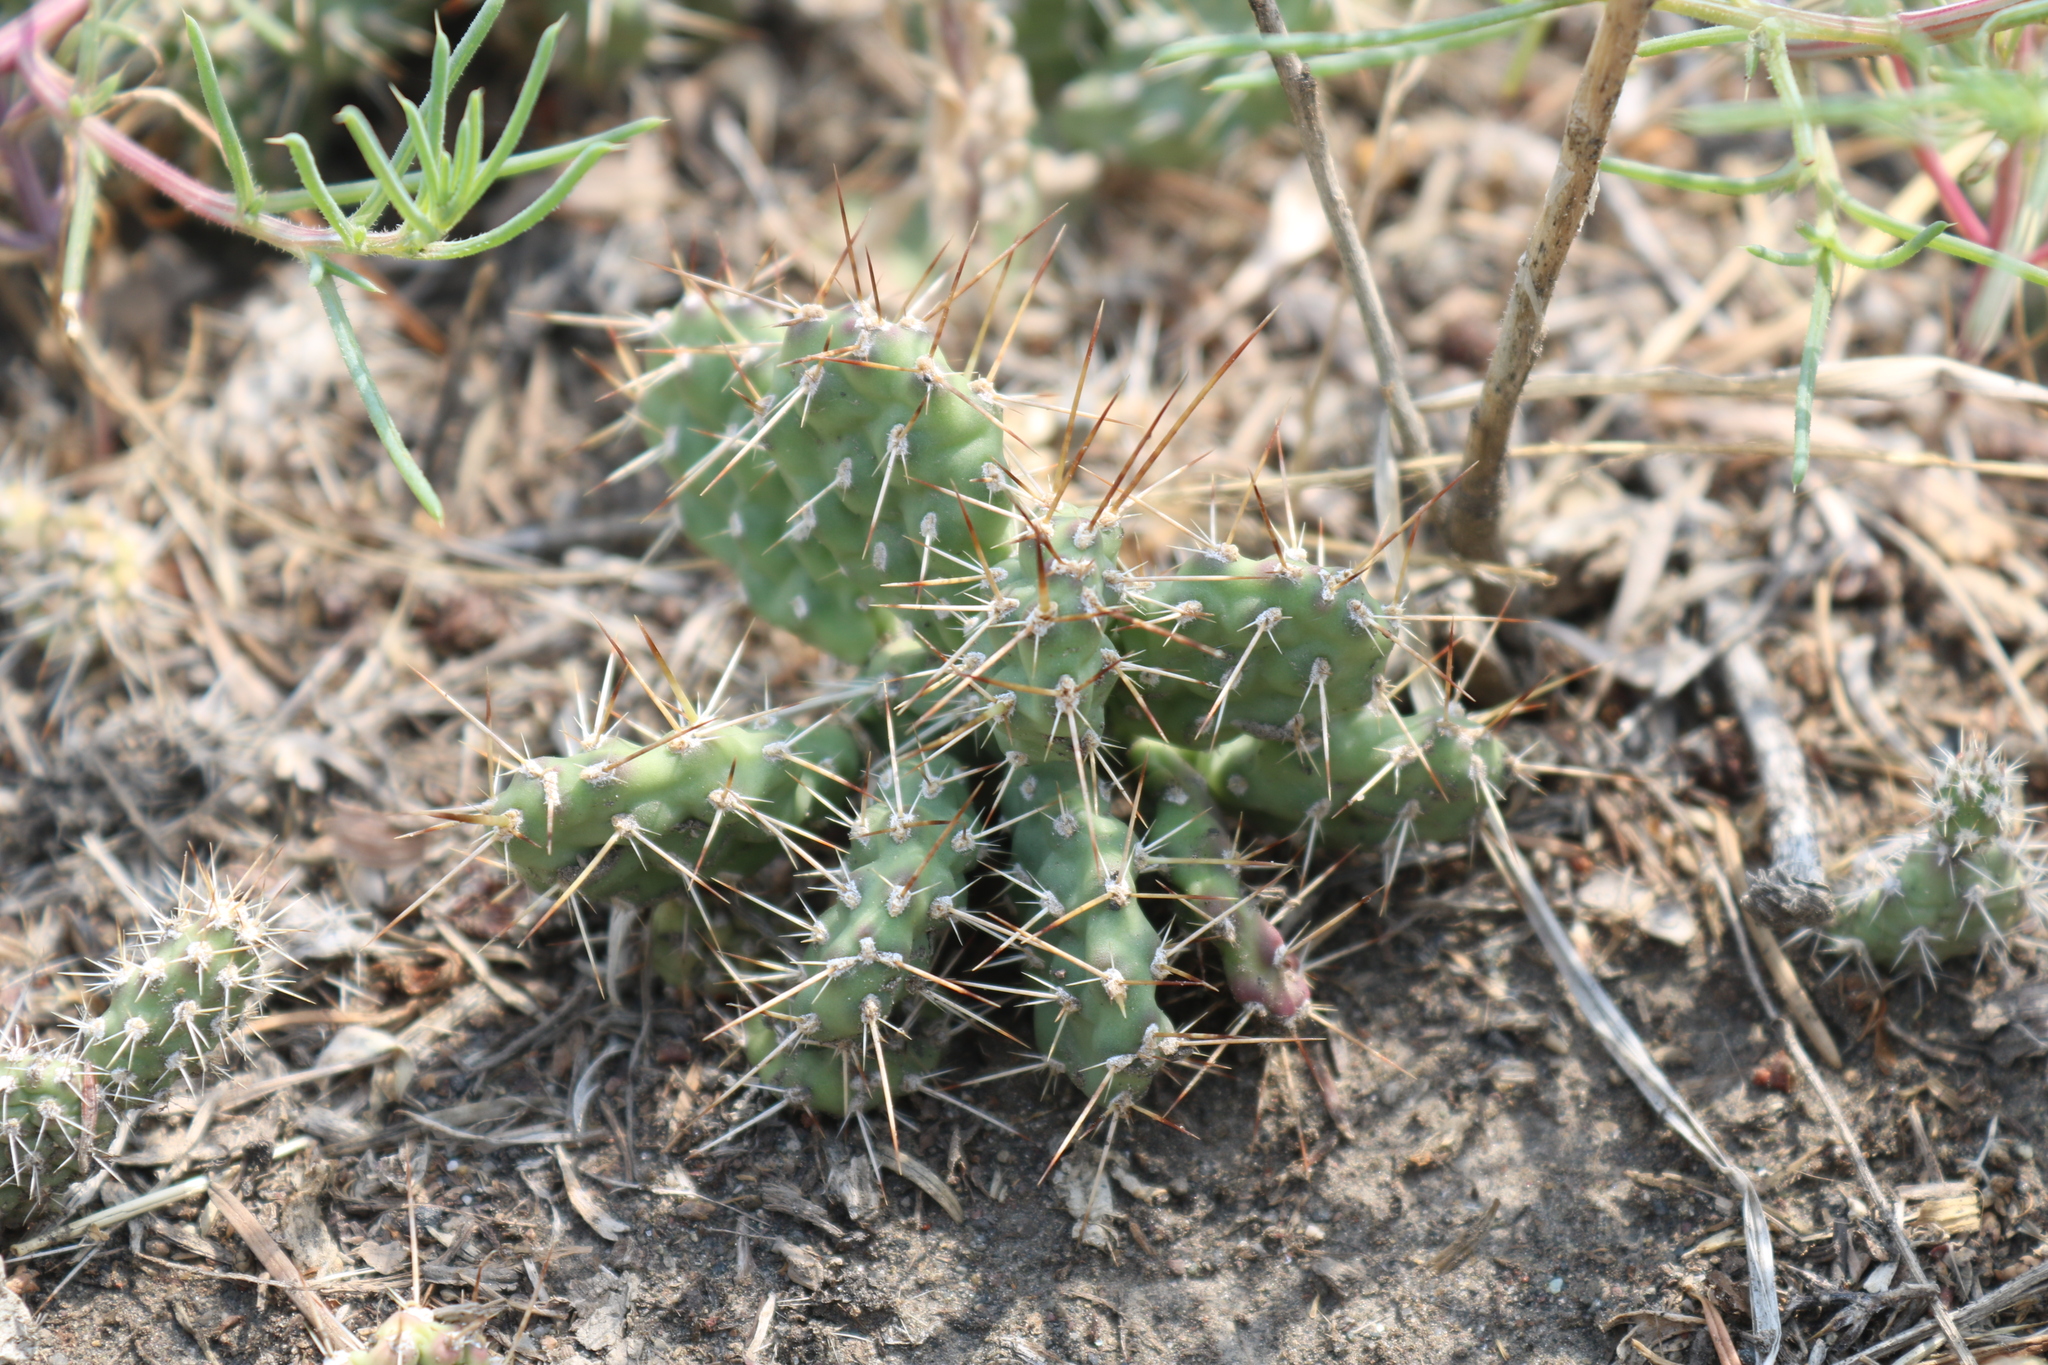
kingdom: Plantae
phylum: Tracheophyta
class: Magnoliopsida
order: Caryophyllales
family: Cactaceae
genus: Opuntia
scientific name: Opuntia fragilis
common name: Brittle cactus
